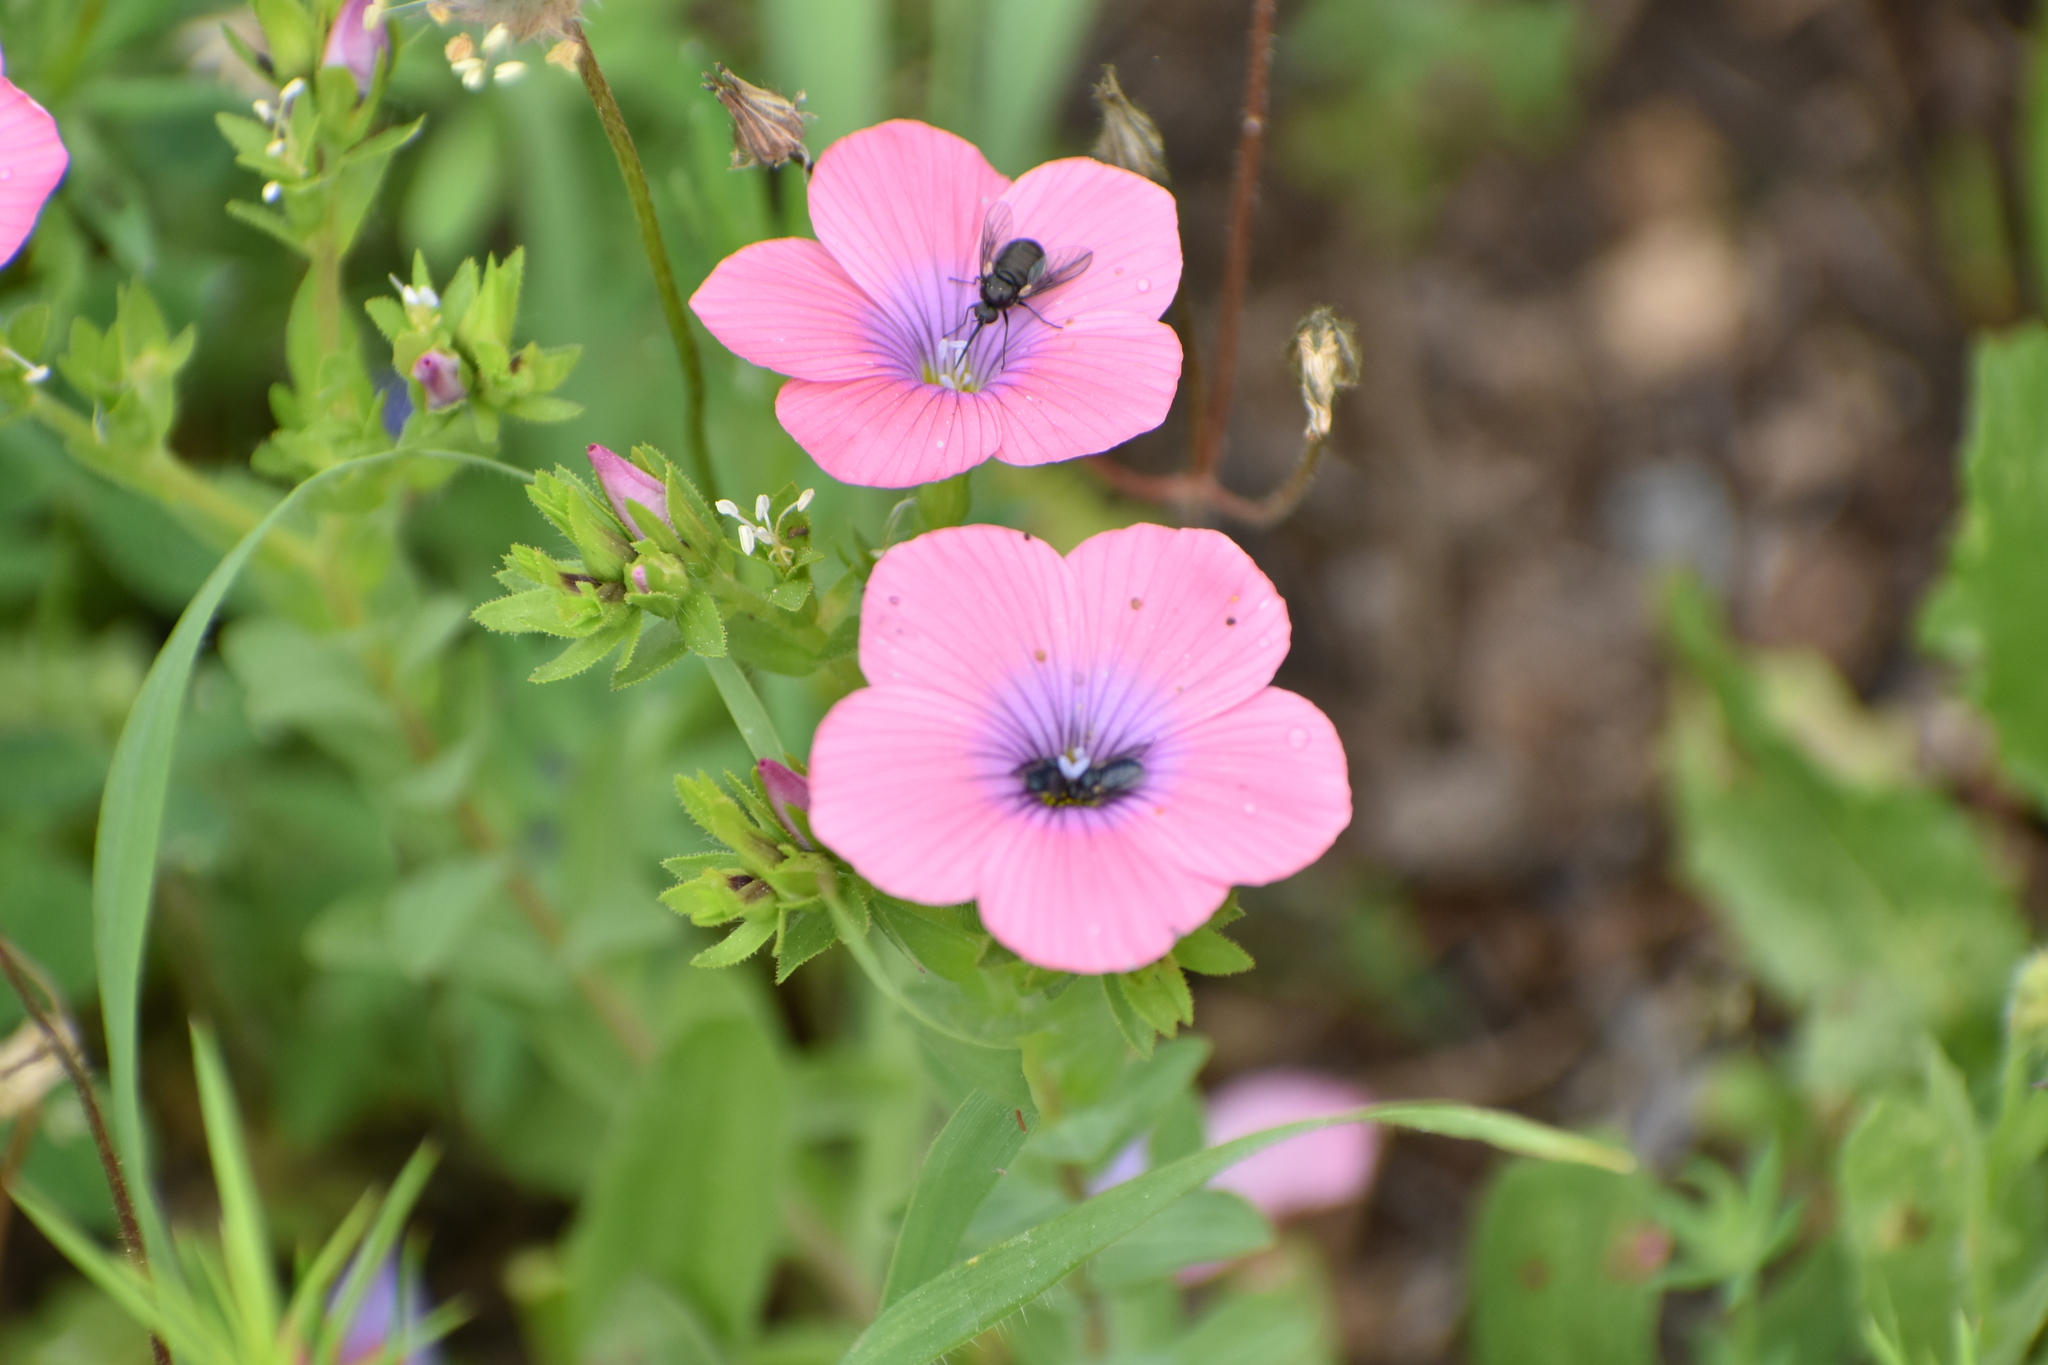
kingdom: Plantae
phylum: Tracheophyta
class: Magnoliopsida
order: Malpighiales
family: Linaceae
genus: Linum
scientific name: Linum pubescens
